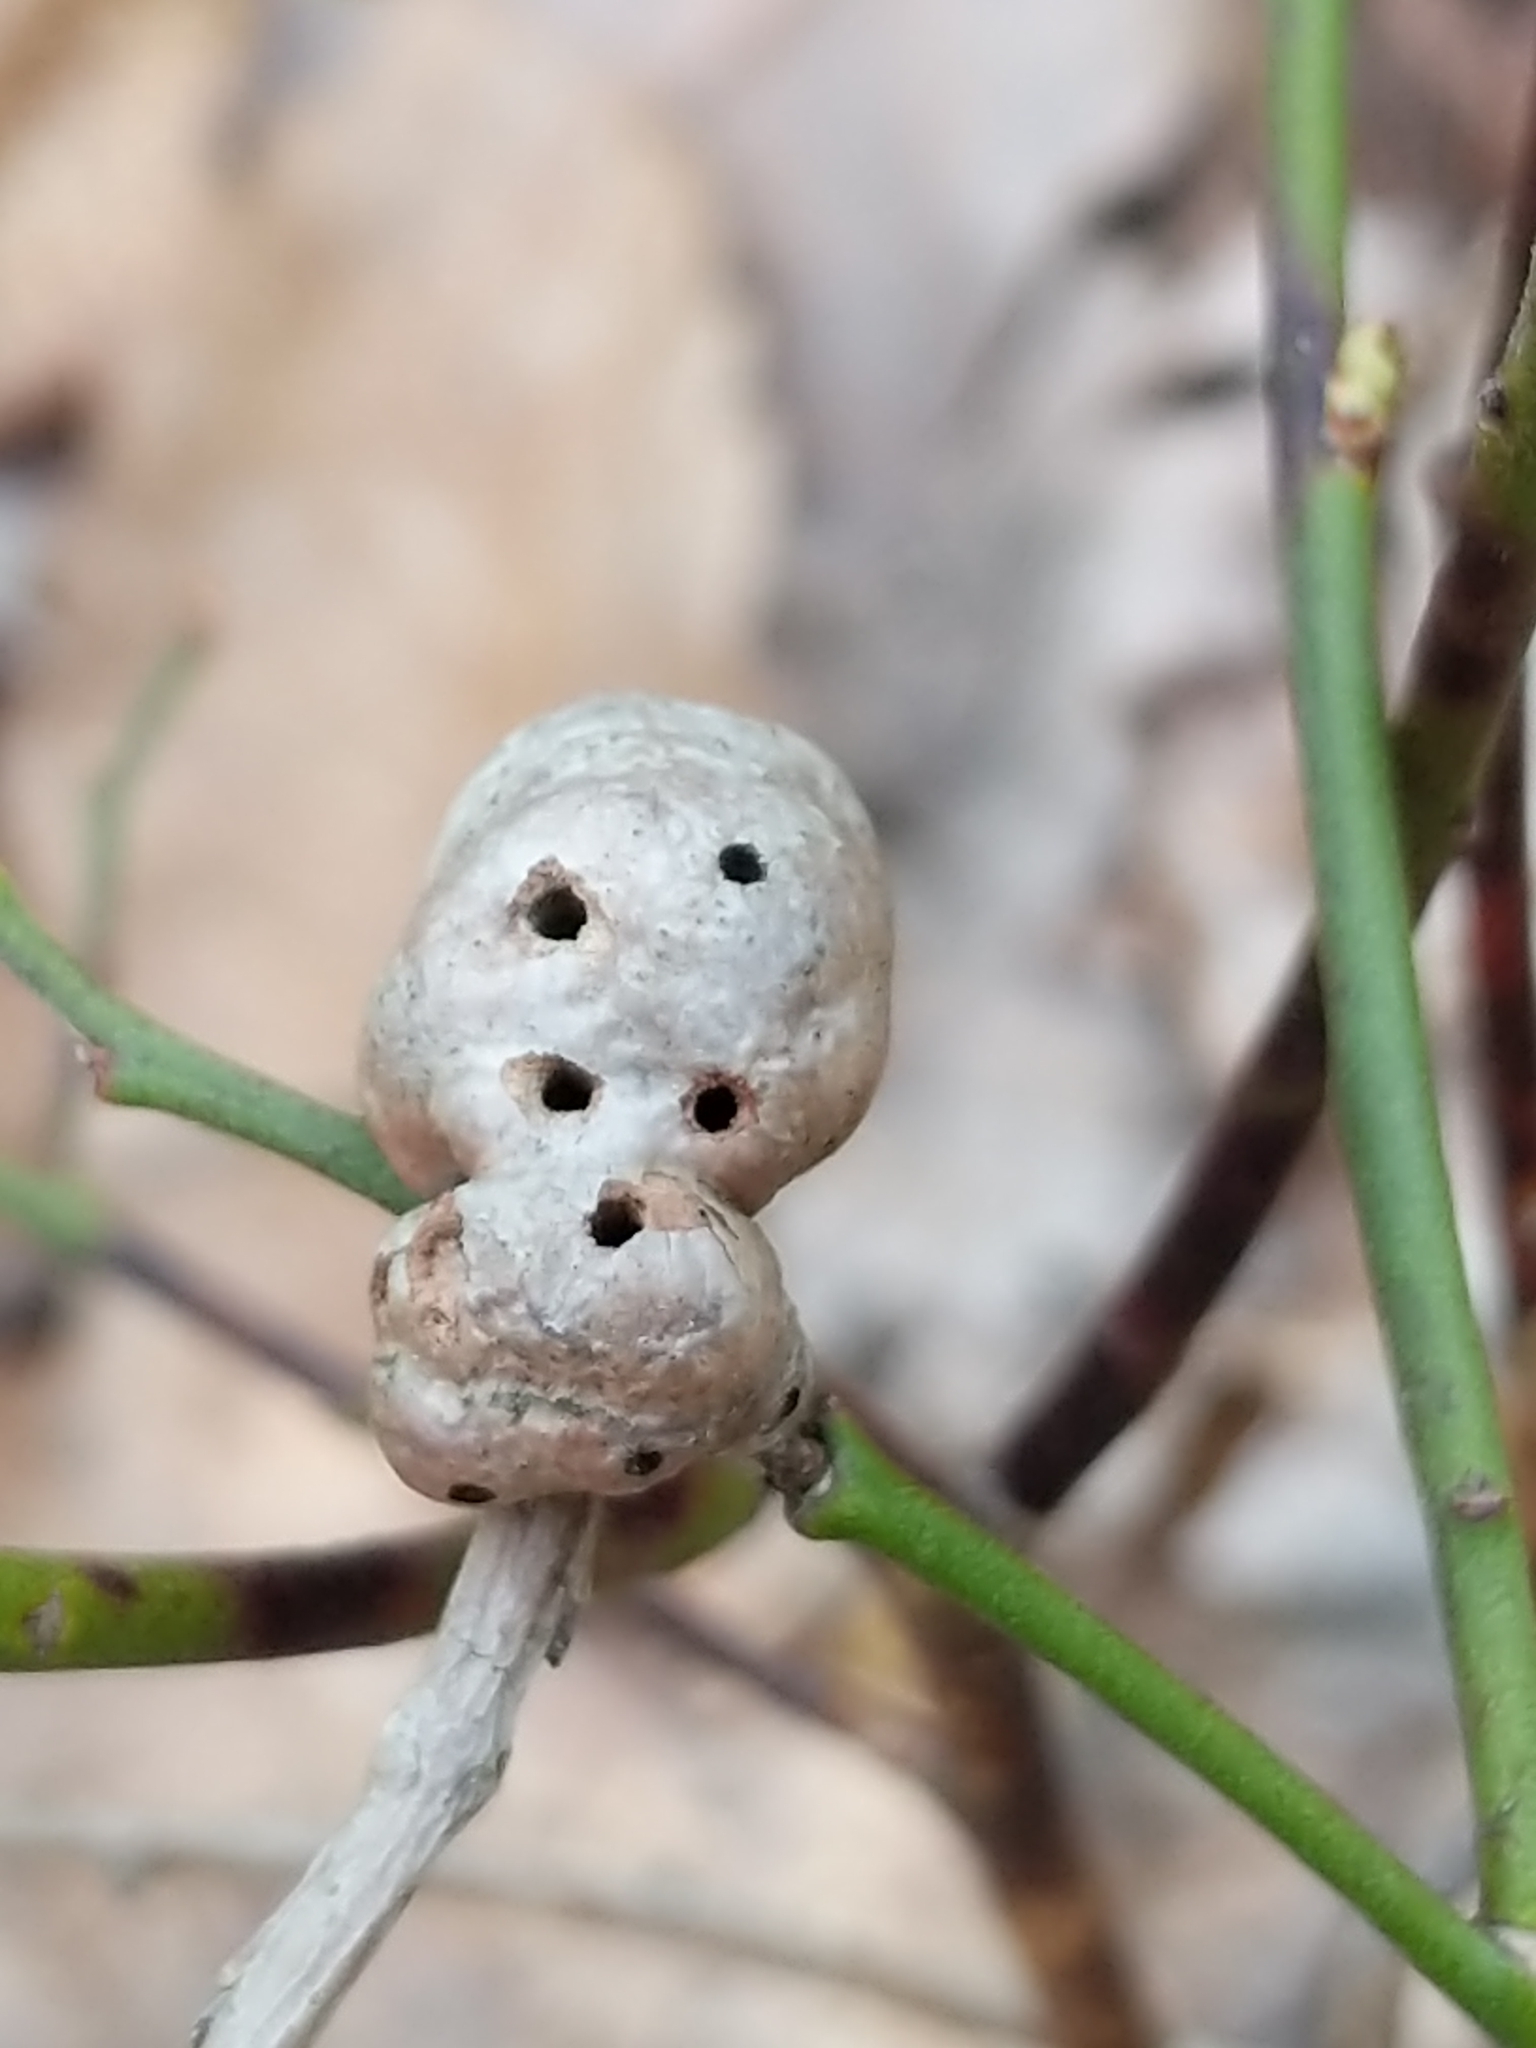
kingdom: Animalia
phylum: Arthropoda
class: Insecta
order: Hymenoptera
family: Pteromalidae
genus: Hemadas
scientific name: Hemadas nubilipennis
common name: Blueberry stem gall wasp
